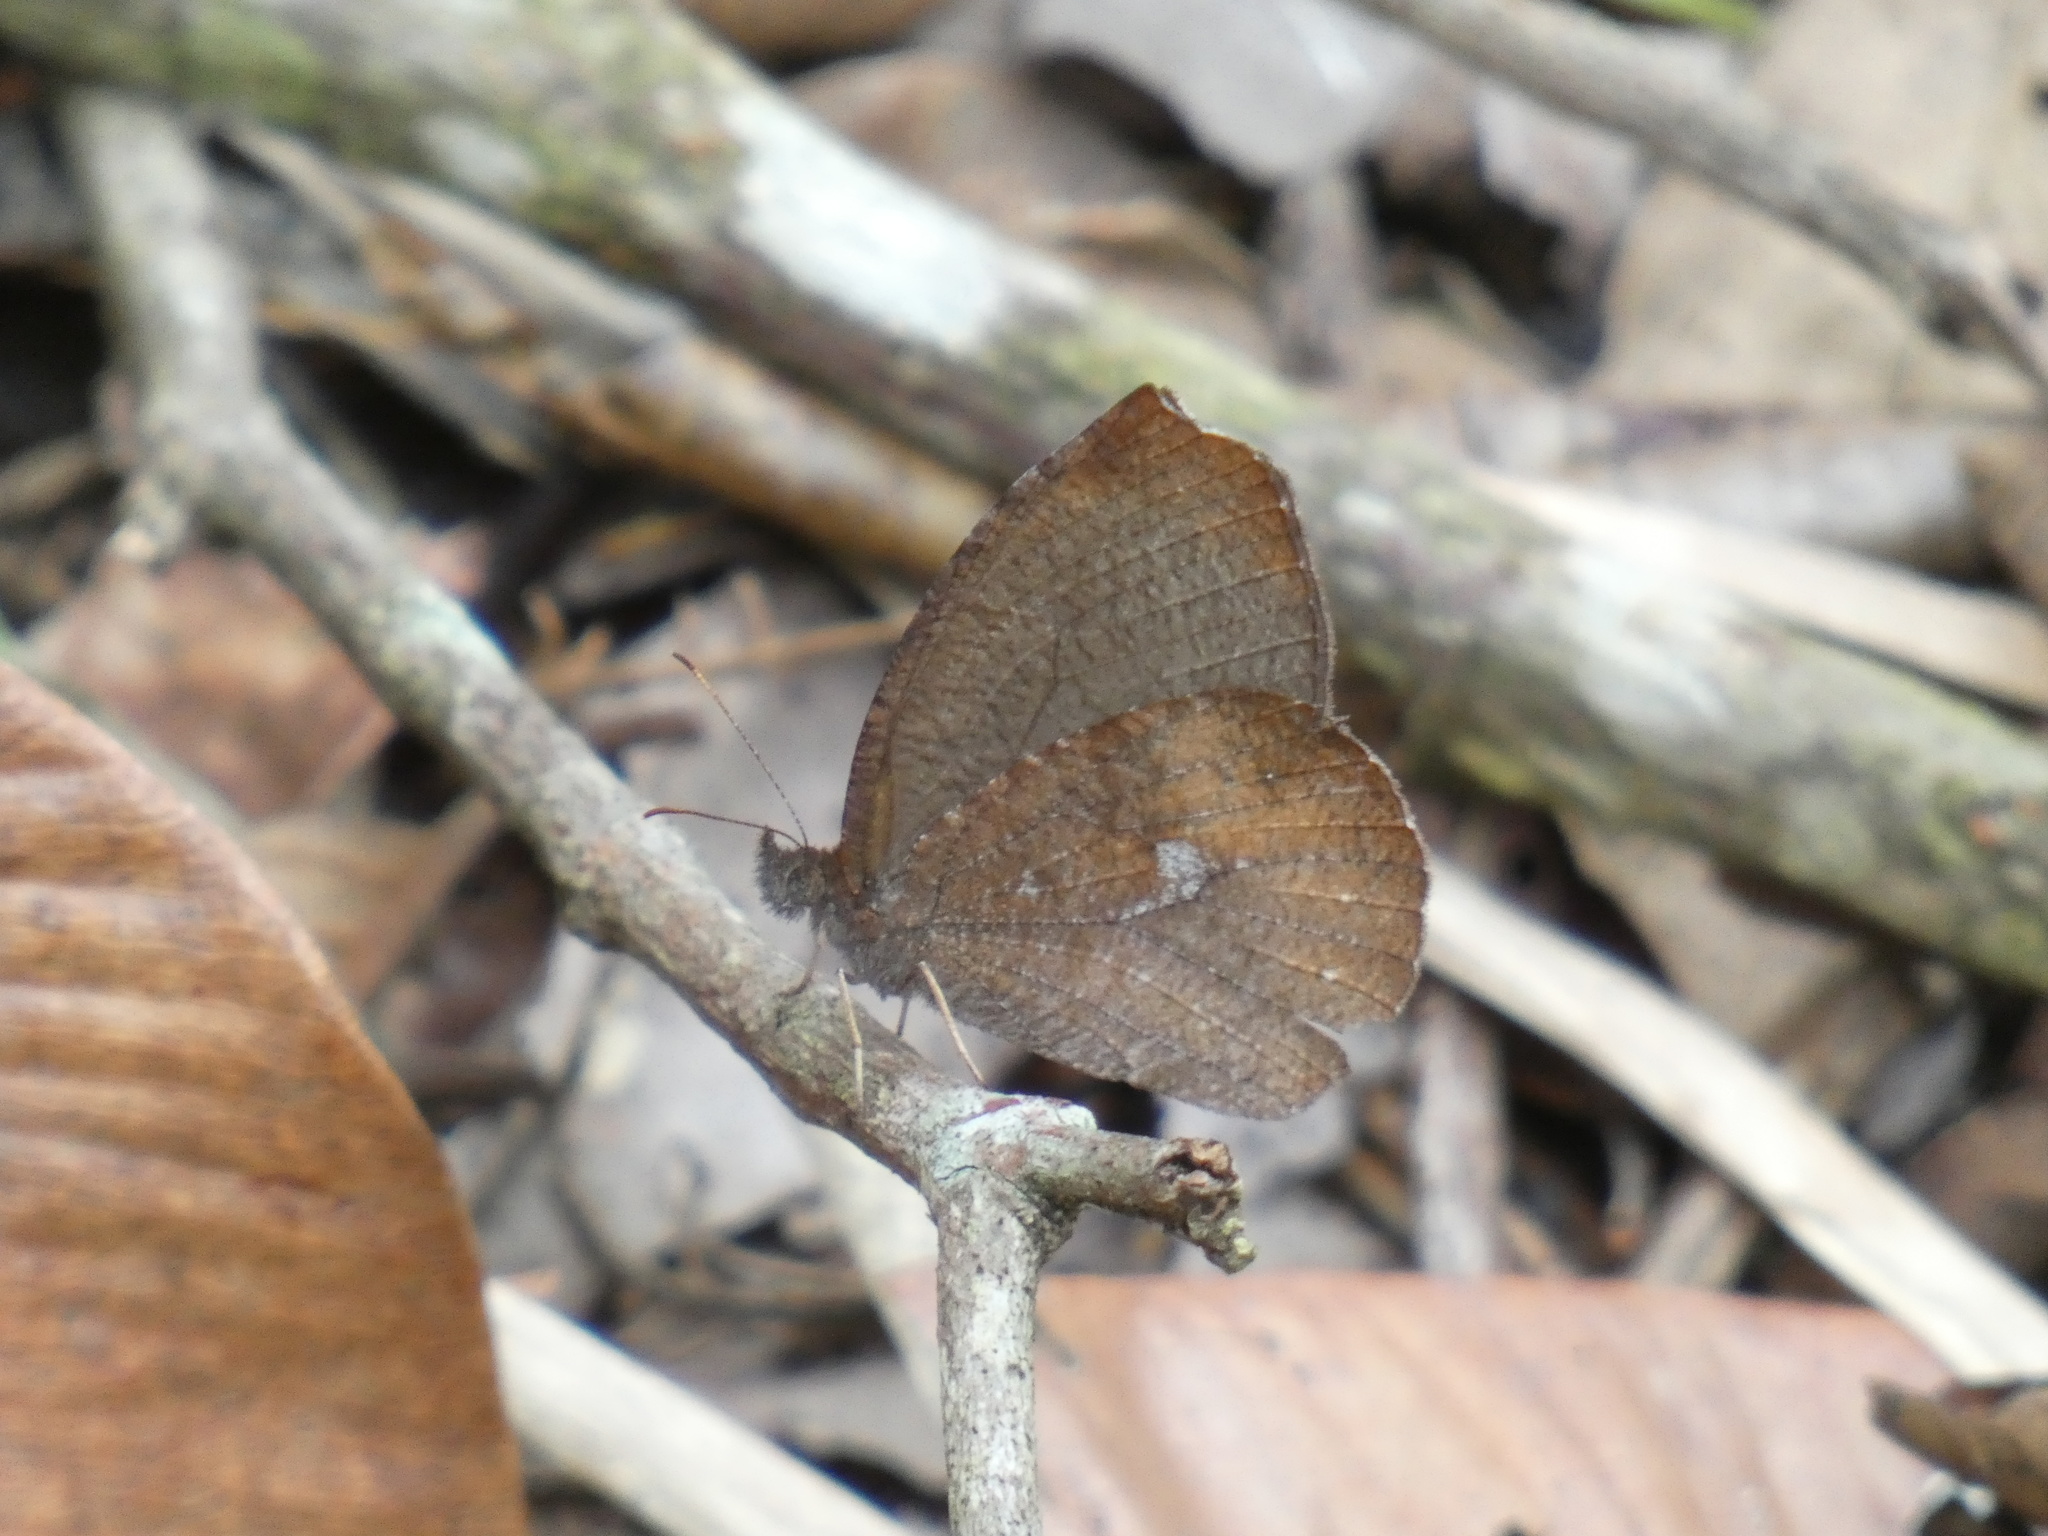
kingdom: Animalia
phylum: Arthropoda
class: Insecta
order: Lepidoptera
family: Nymphalidae
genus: Godartiana
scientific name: Godartiana muscosa
